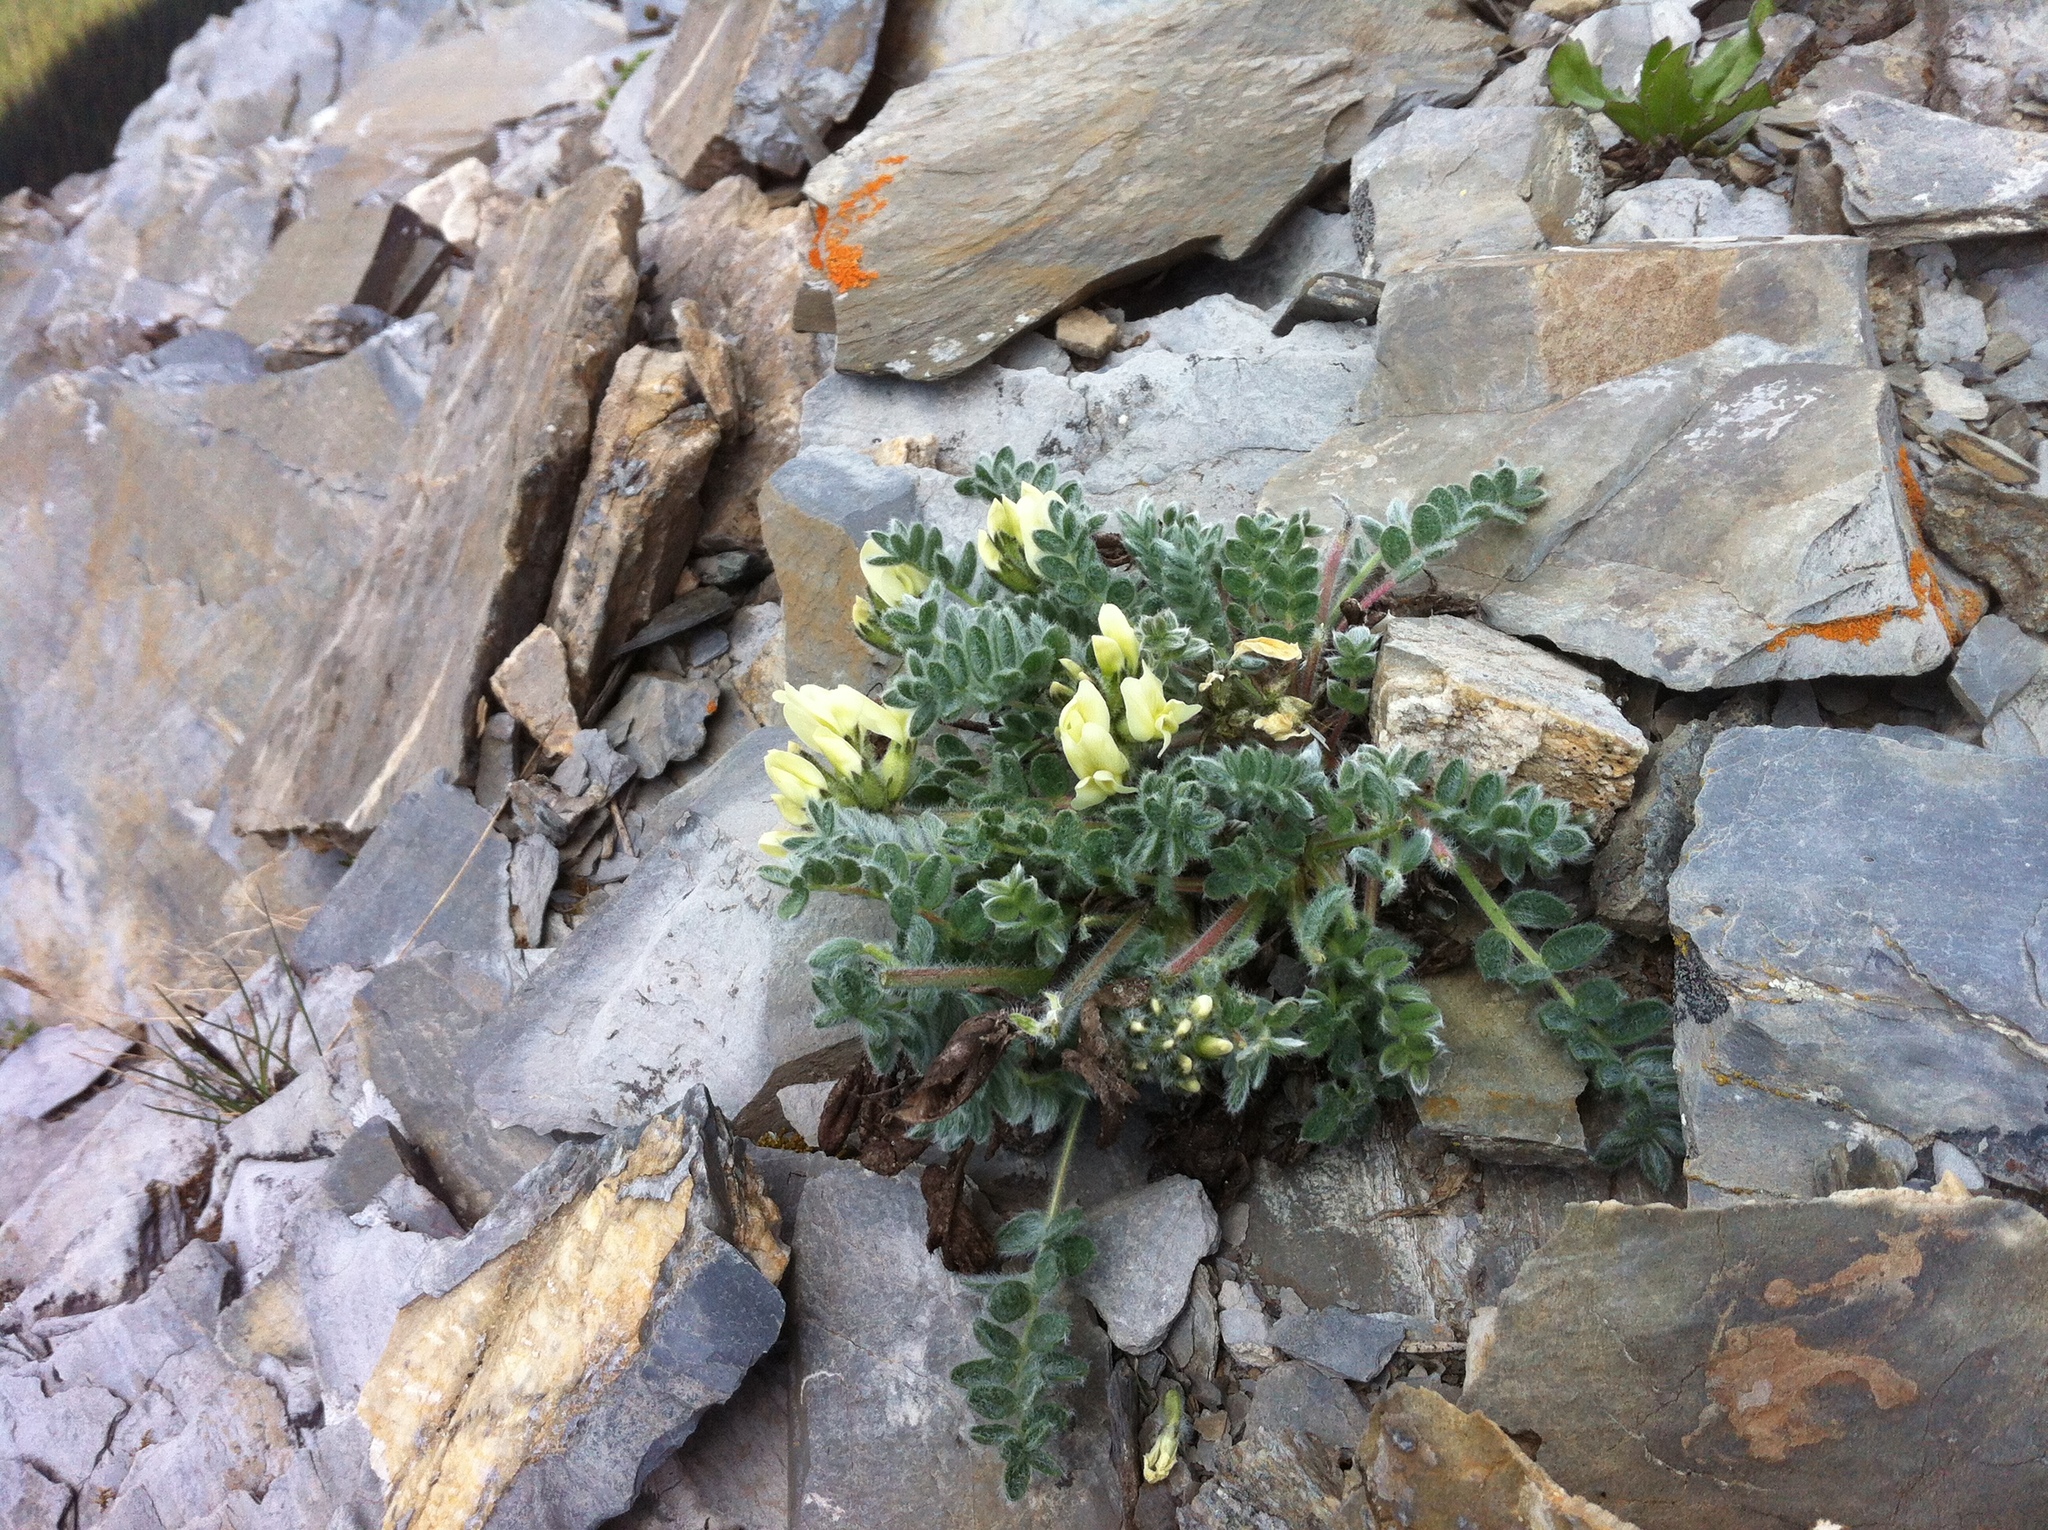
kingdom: Plantae
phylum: Tracheophyta
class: Magnoliopsida
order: Fabales
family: Fabaceae
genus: Oxytropis
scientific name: Oxytropis campestris
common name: Field locoweed
